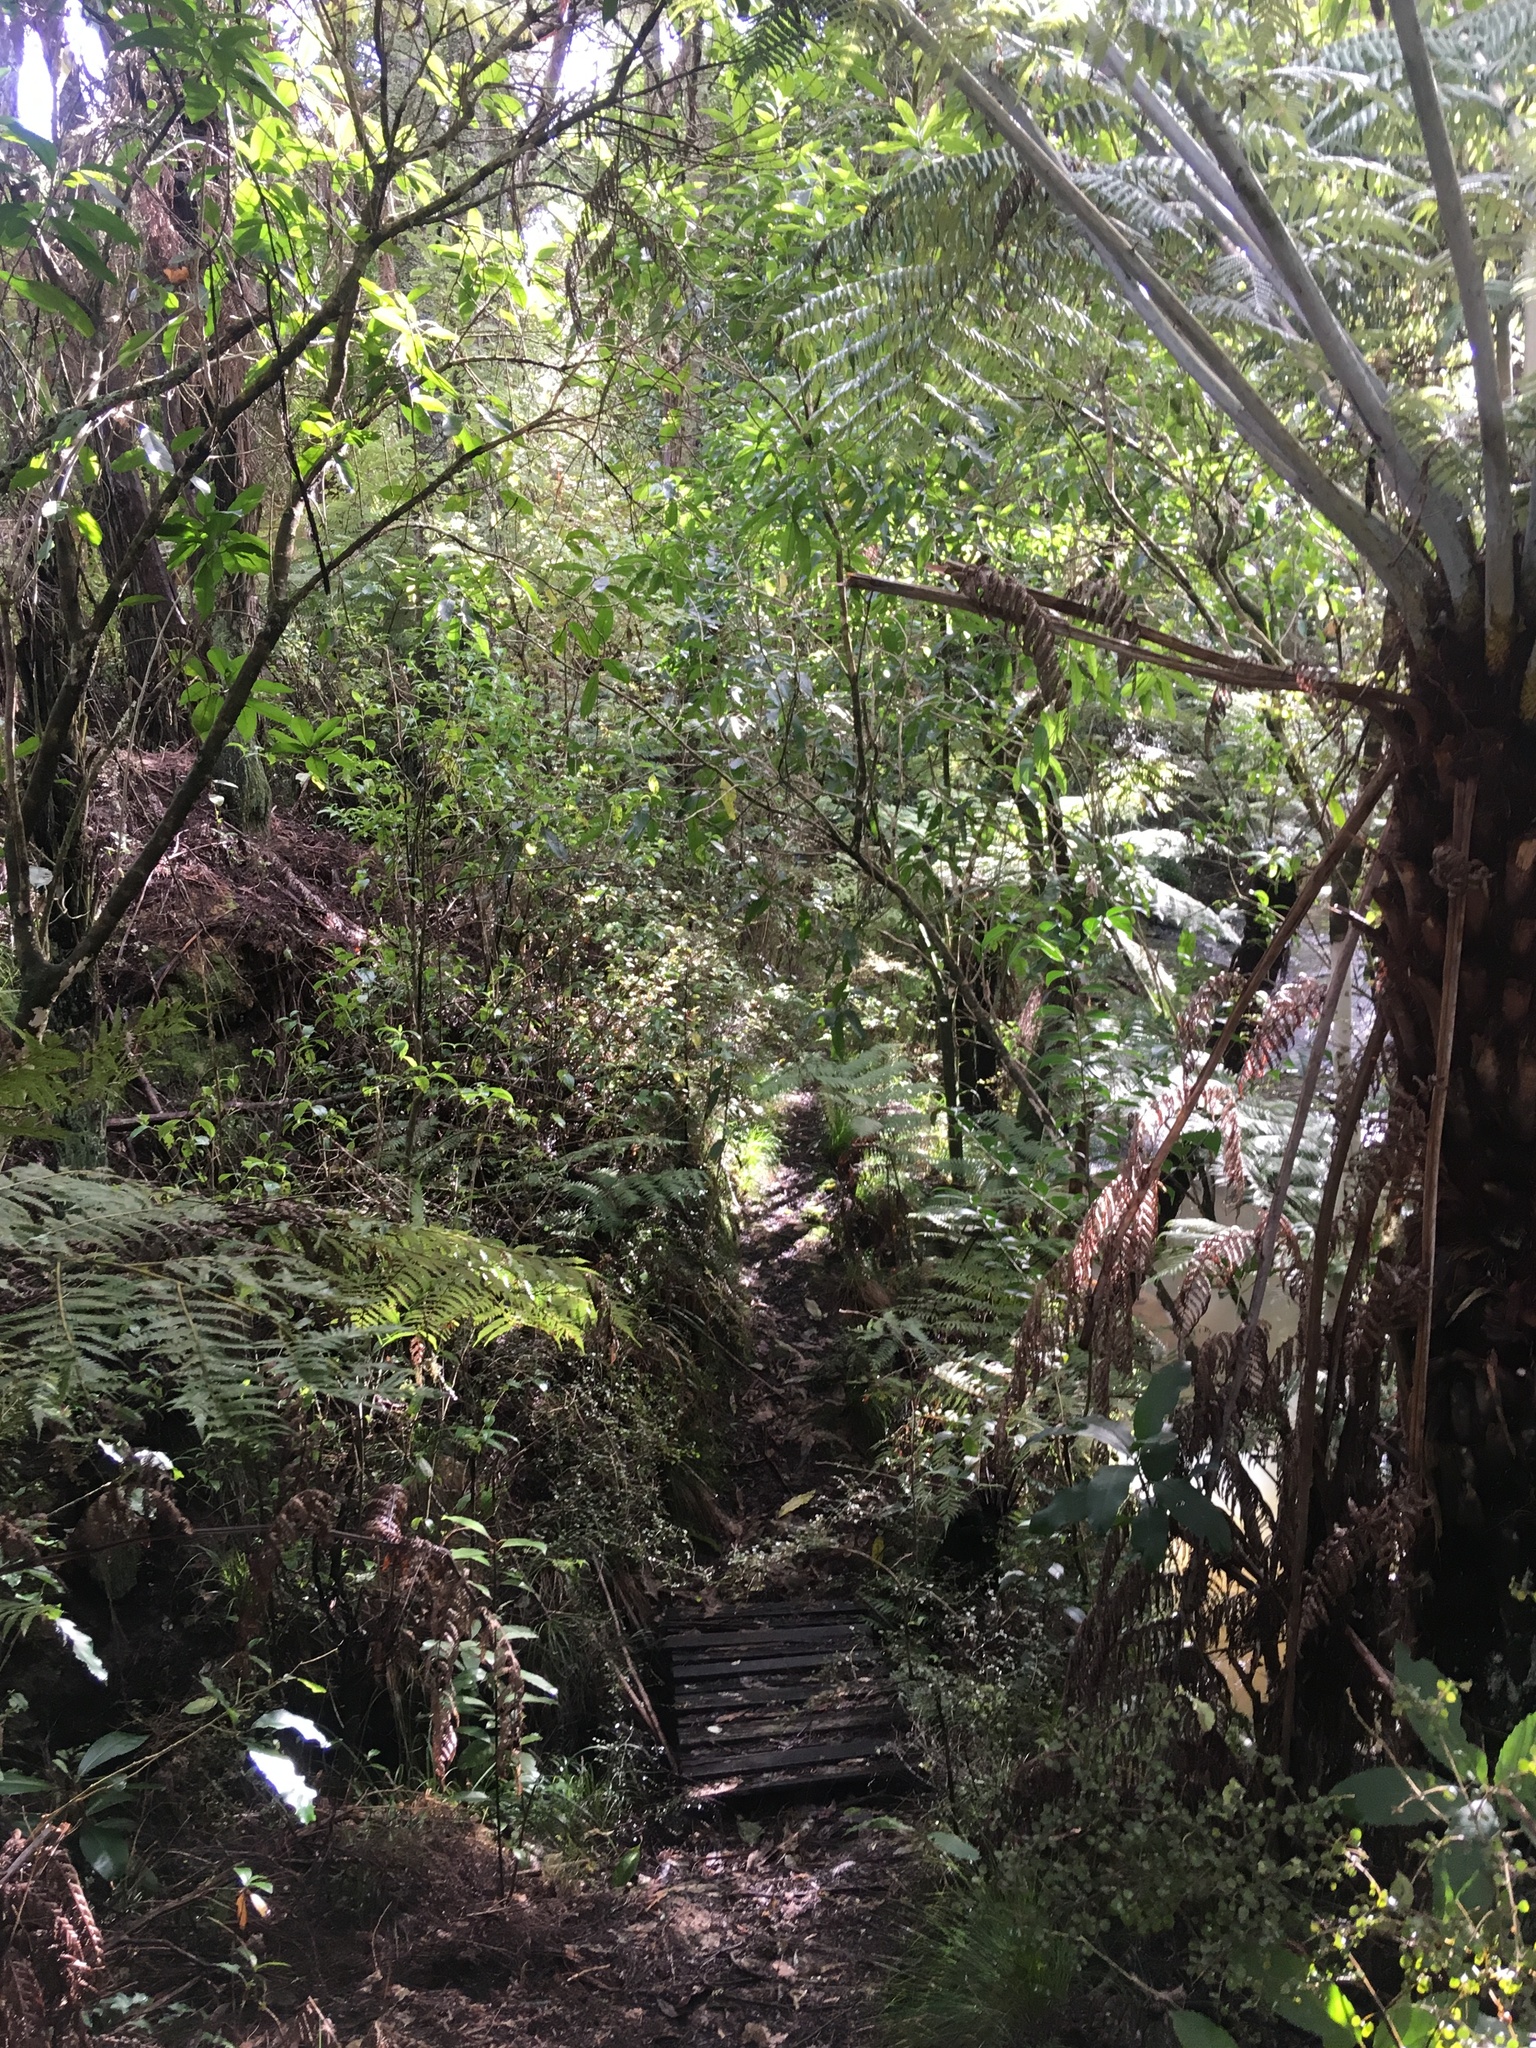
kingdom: Plantae
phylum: Tracheophyta
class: Polypodiopsida
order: Cyatheales
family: Cyatheaceae
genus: Alsophila
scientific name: Alsophila dealbata
